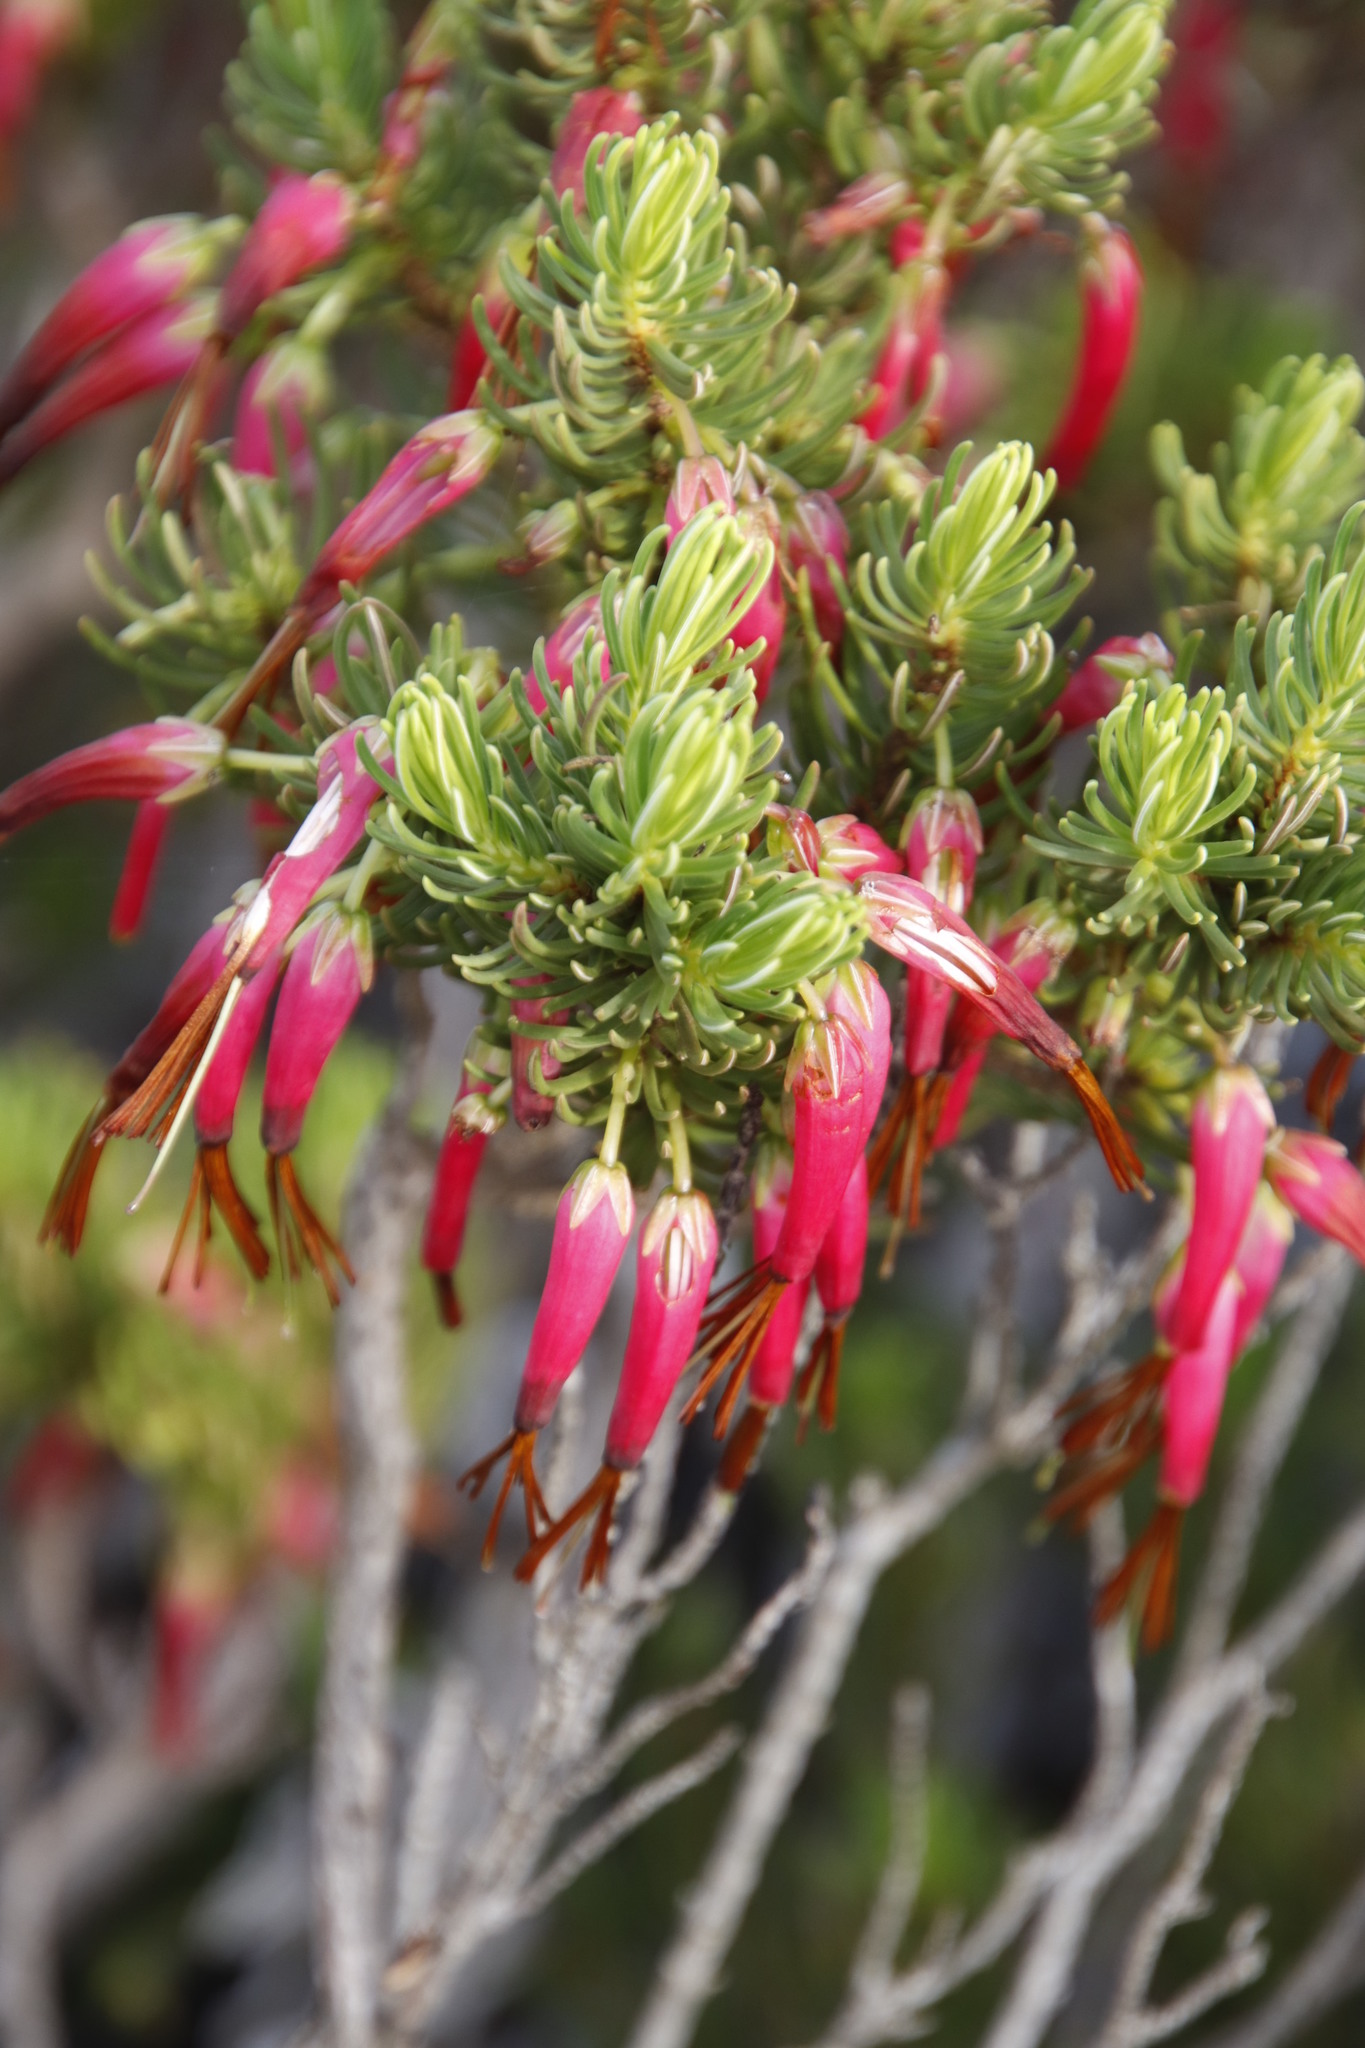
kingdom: Plantae
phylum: Tracheophyta
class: Magnoliopsida
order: Ericales
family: Ericaceae
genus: Erica
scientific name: Erica plukenetii
